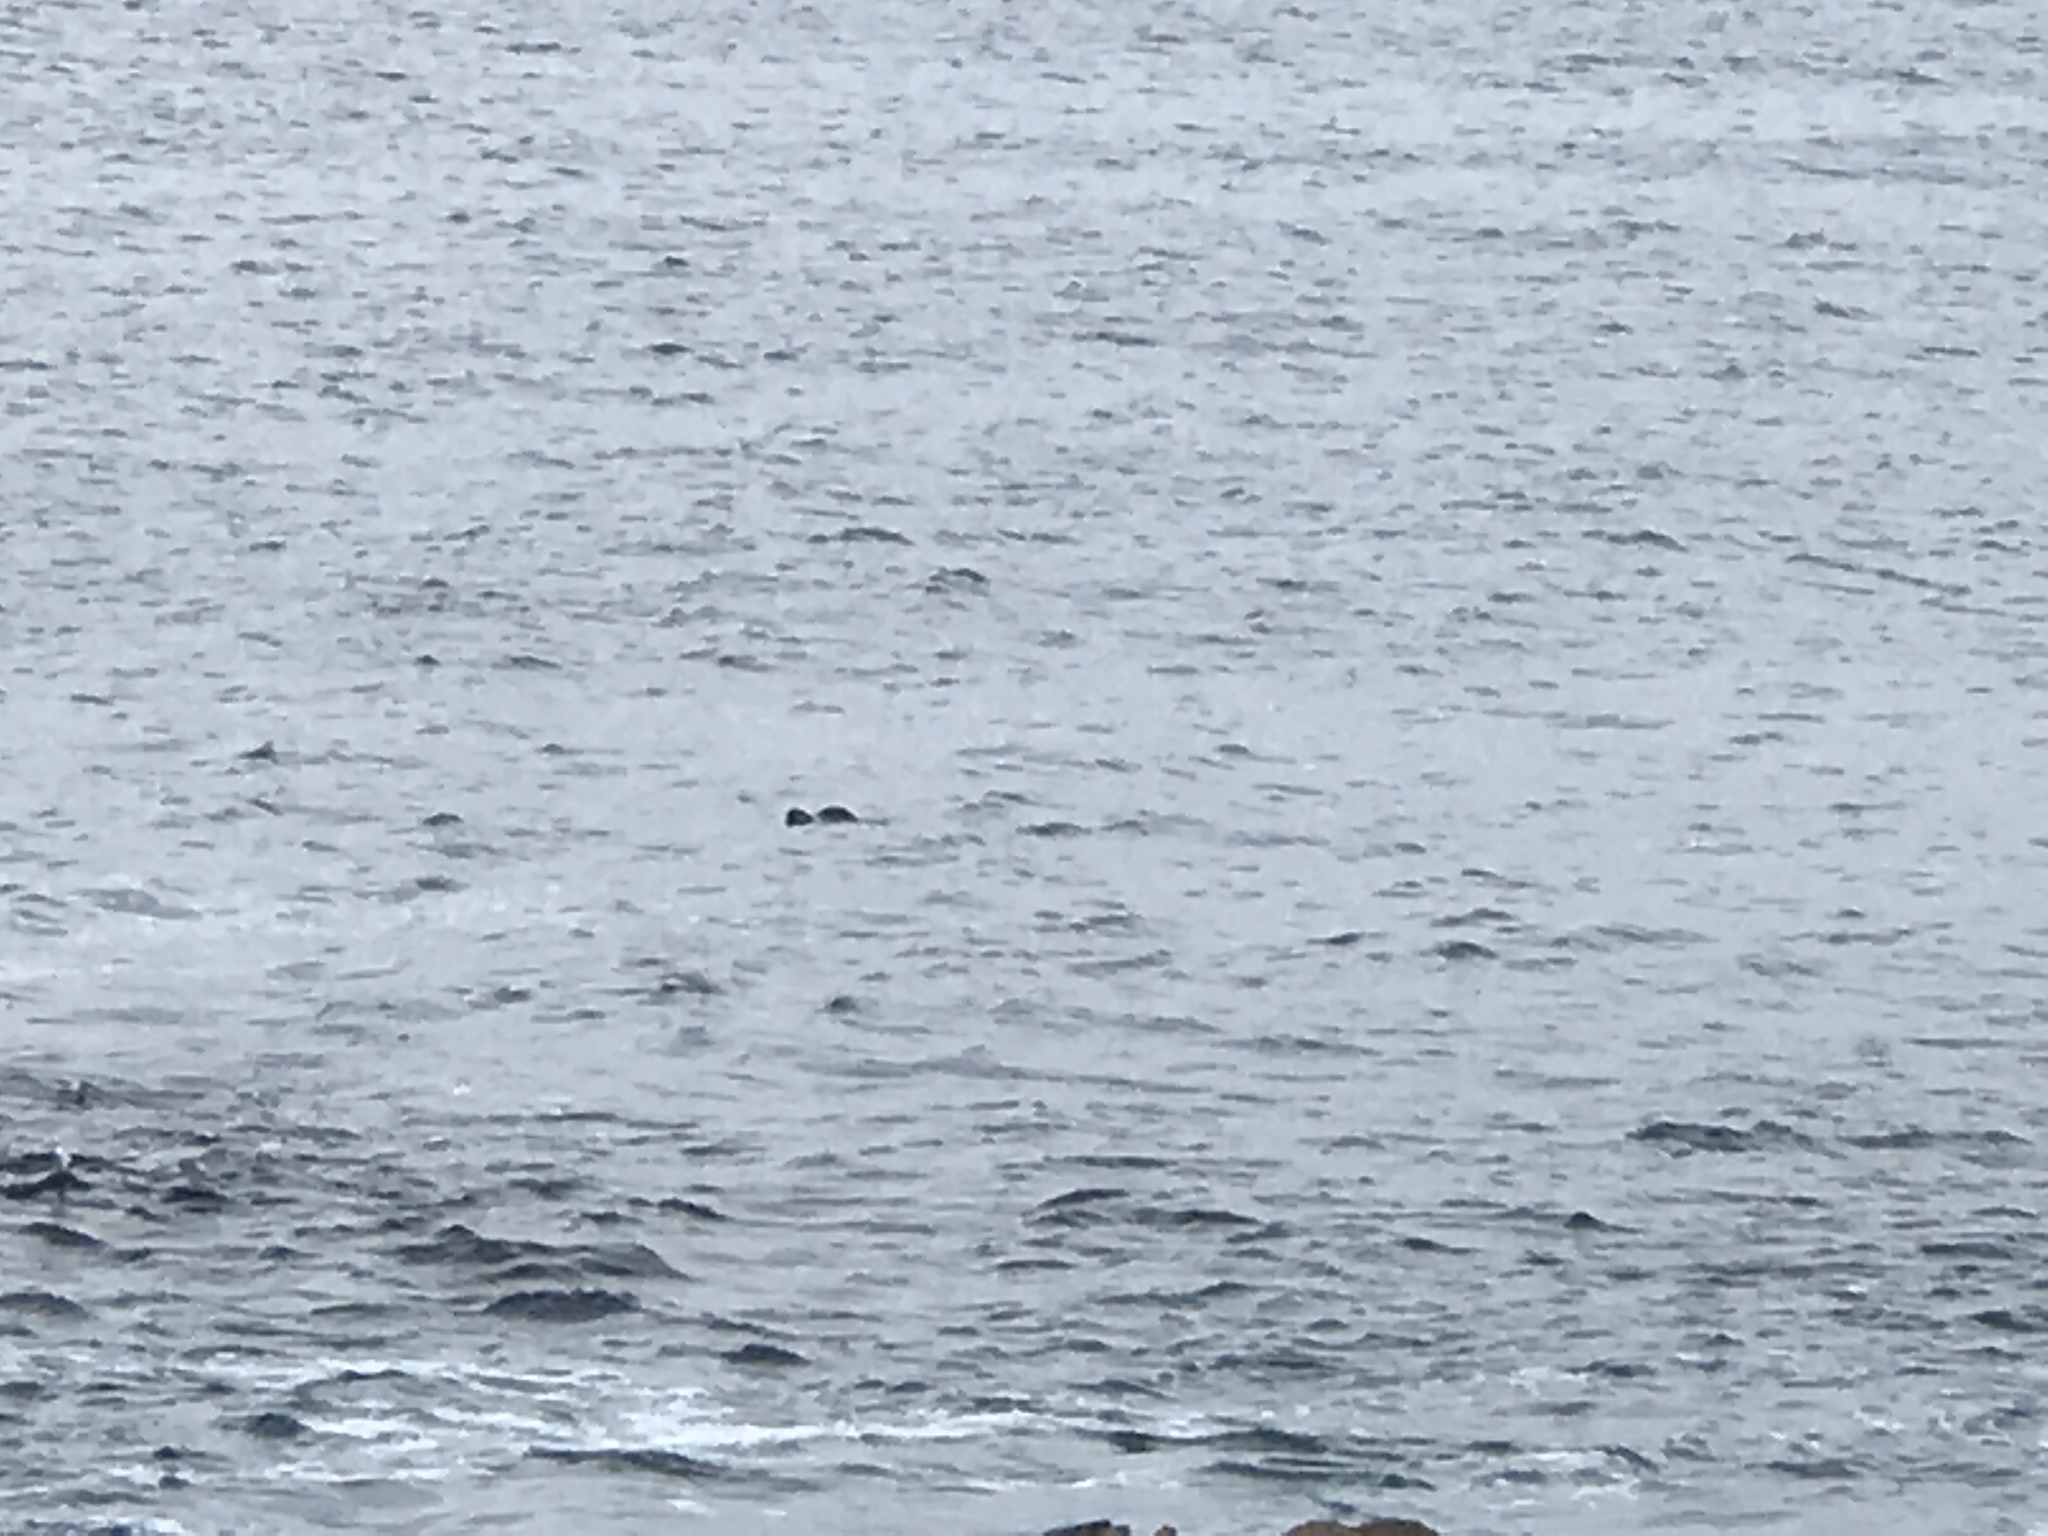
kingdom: Animalia
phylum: Chordata
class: Mammalia
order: Carnivora
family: Mustelidae
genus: Enhydra
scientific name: Enhydra lutris
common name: Sea otter
